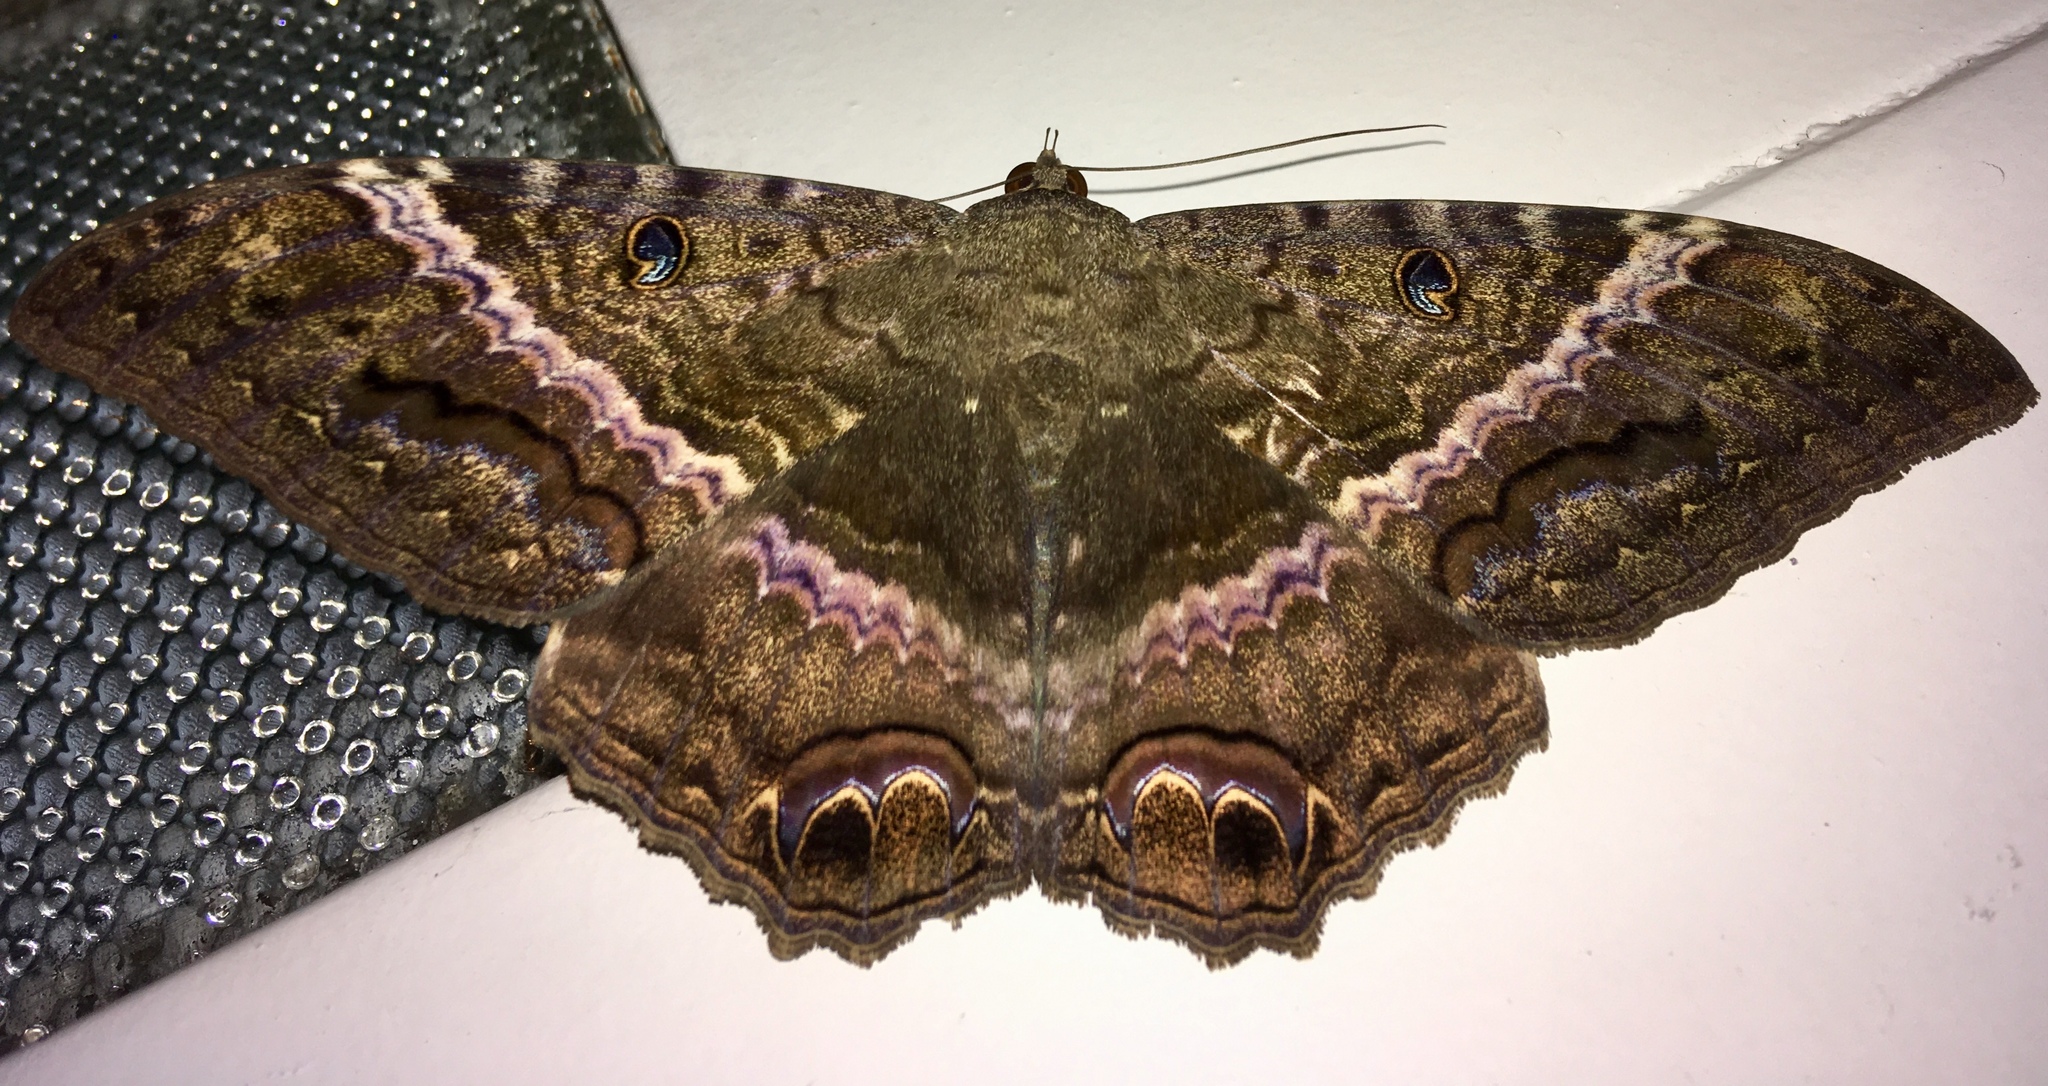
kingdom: Animalia
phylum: Arthropoda
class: Insecta
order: Lepidoptera
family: Erebidae
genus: Ascalapha
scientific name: Ascalapha odorata
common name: Black witch
